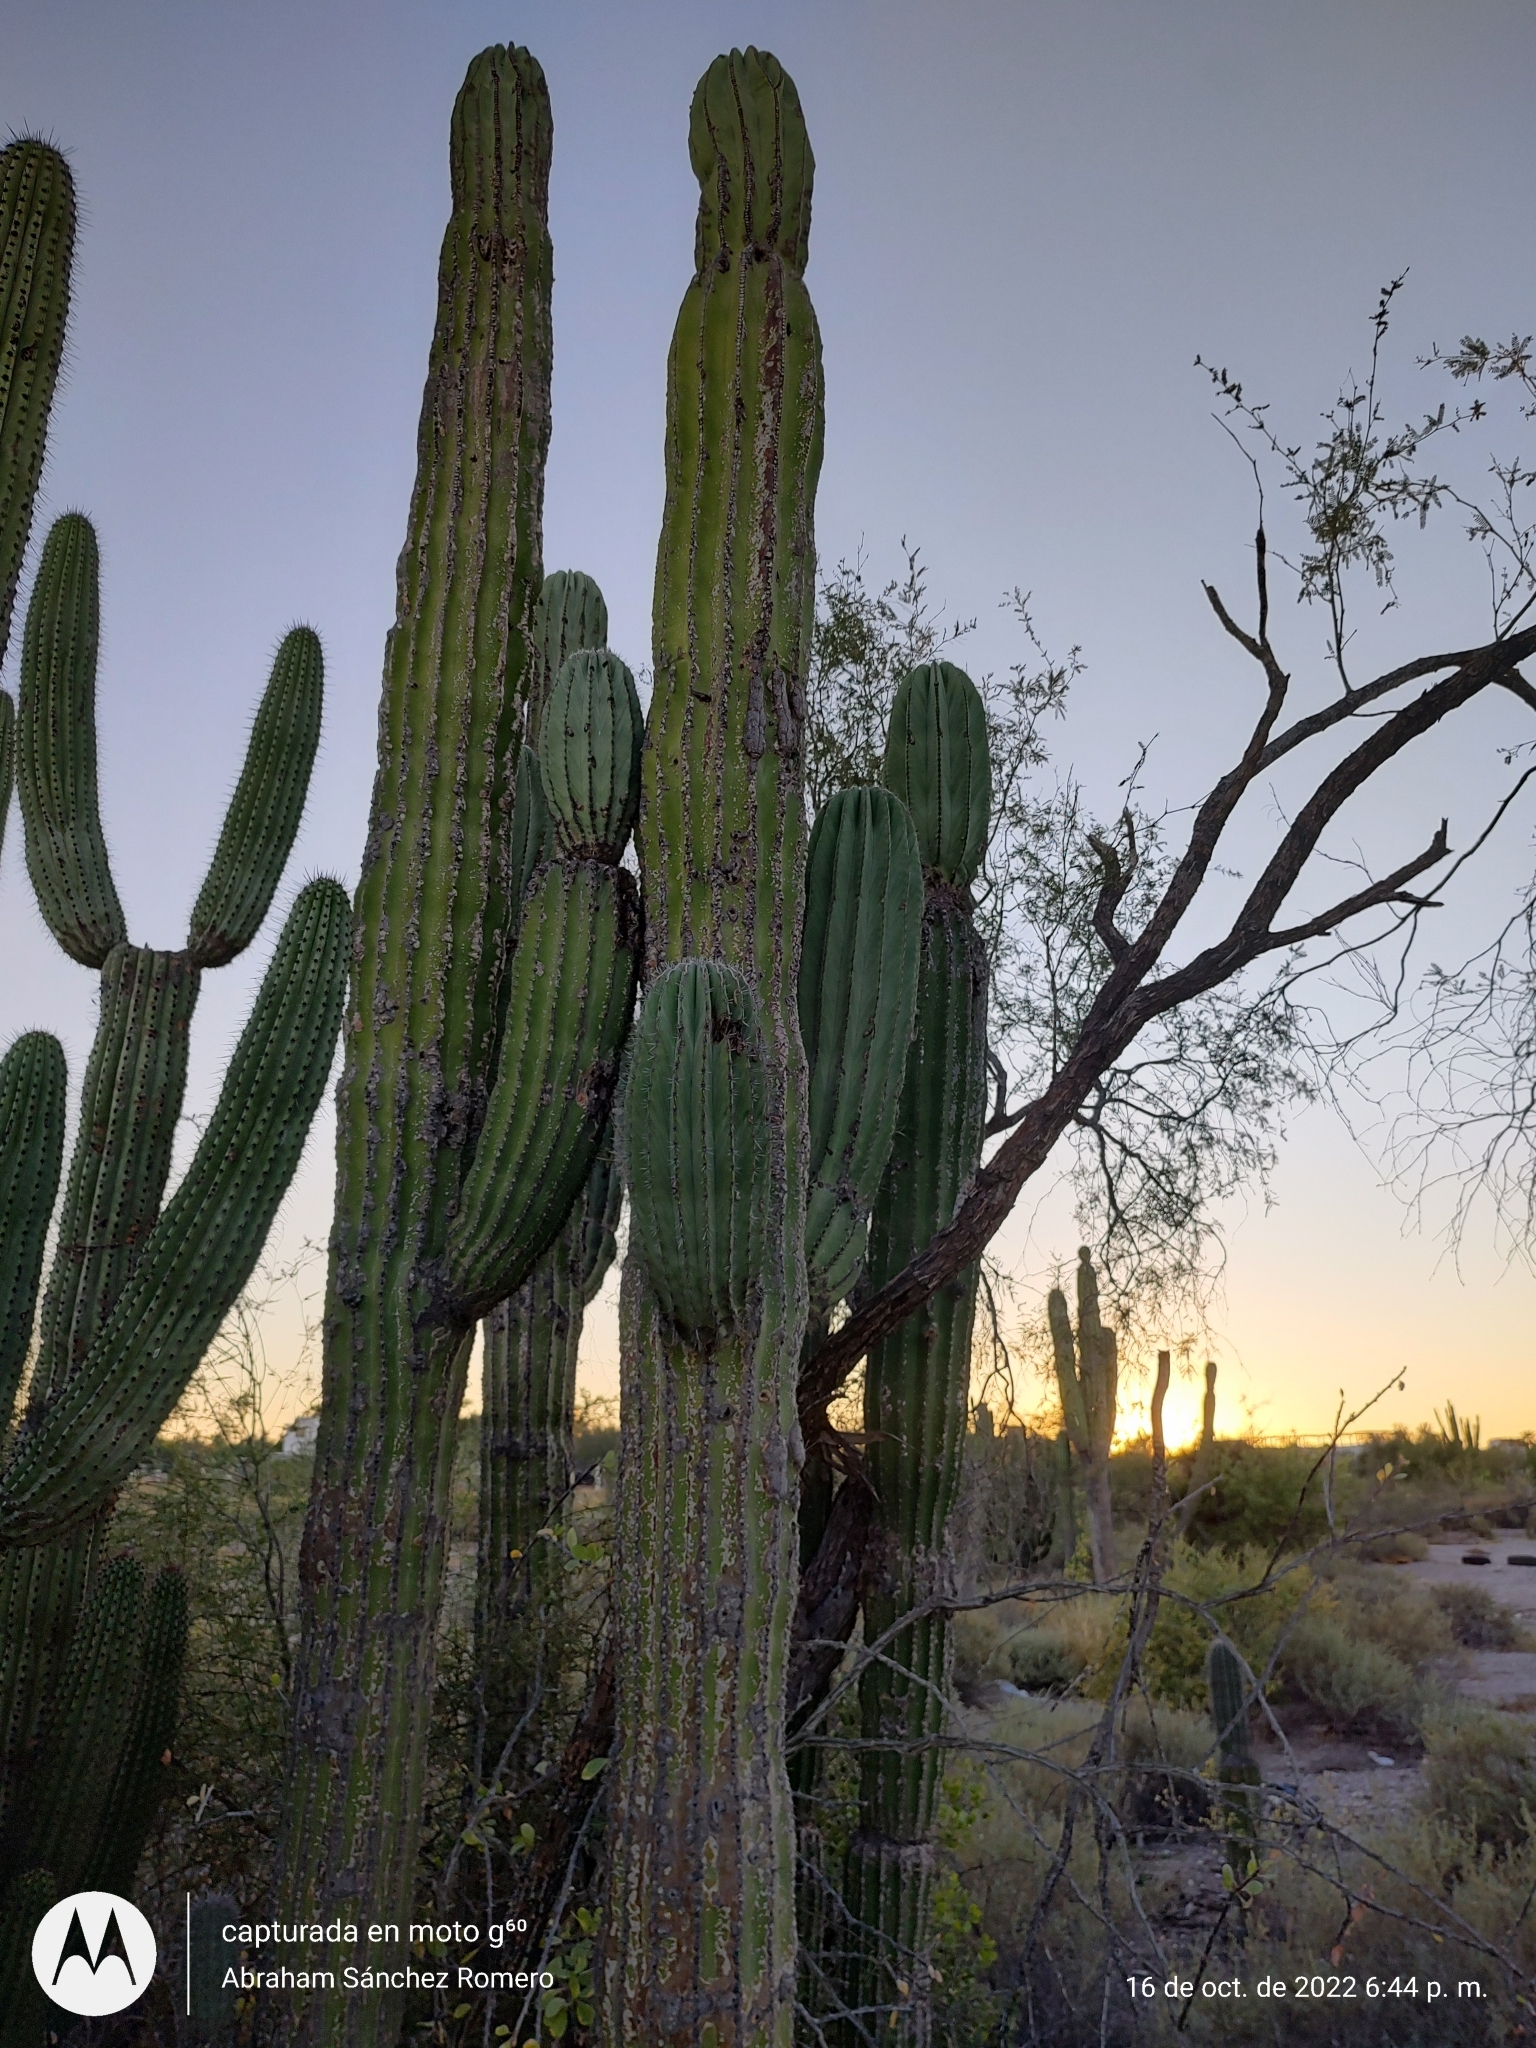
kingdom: Plantae
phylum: Tracheophyta
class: Magnoliopsida
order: Caryophyllales
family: Cactaceae
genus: Pachycereus
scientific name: Pachycereus pringlei
